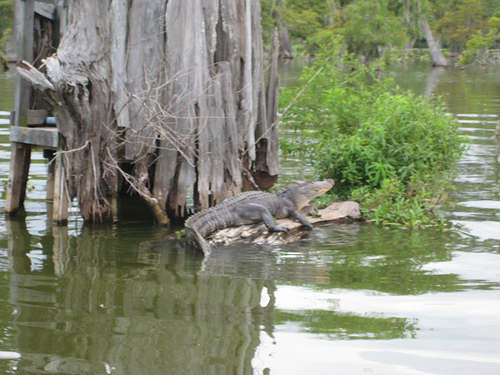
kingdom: Animalia
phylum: Chordata
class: Crocodylia
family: Alligatoridae
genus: Alligator
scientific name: Alligator mississippiensis
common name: American alligator
